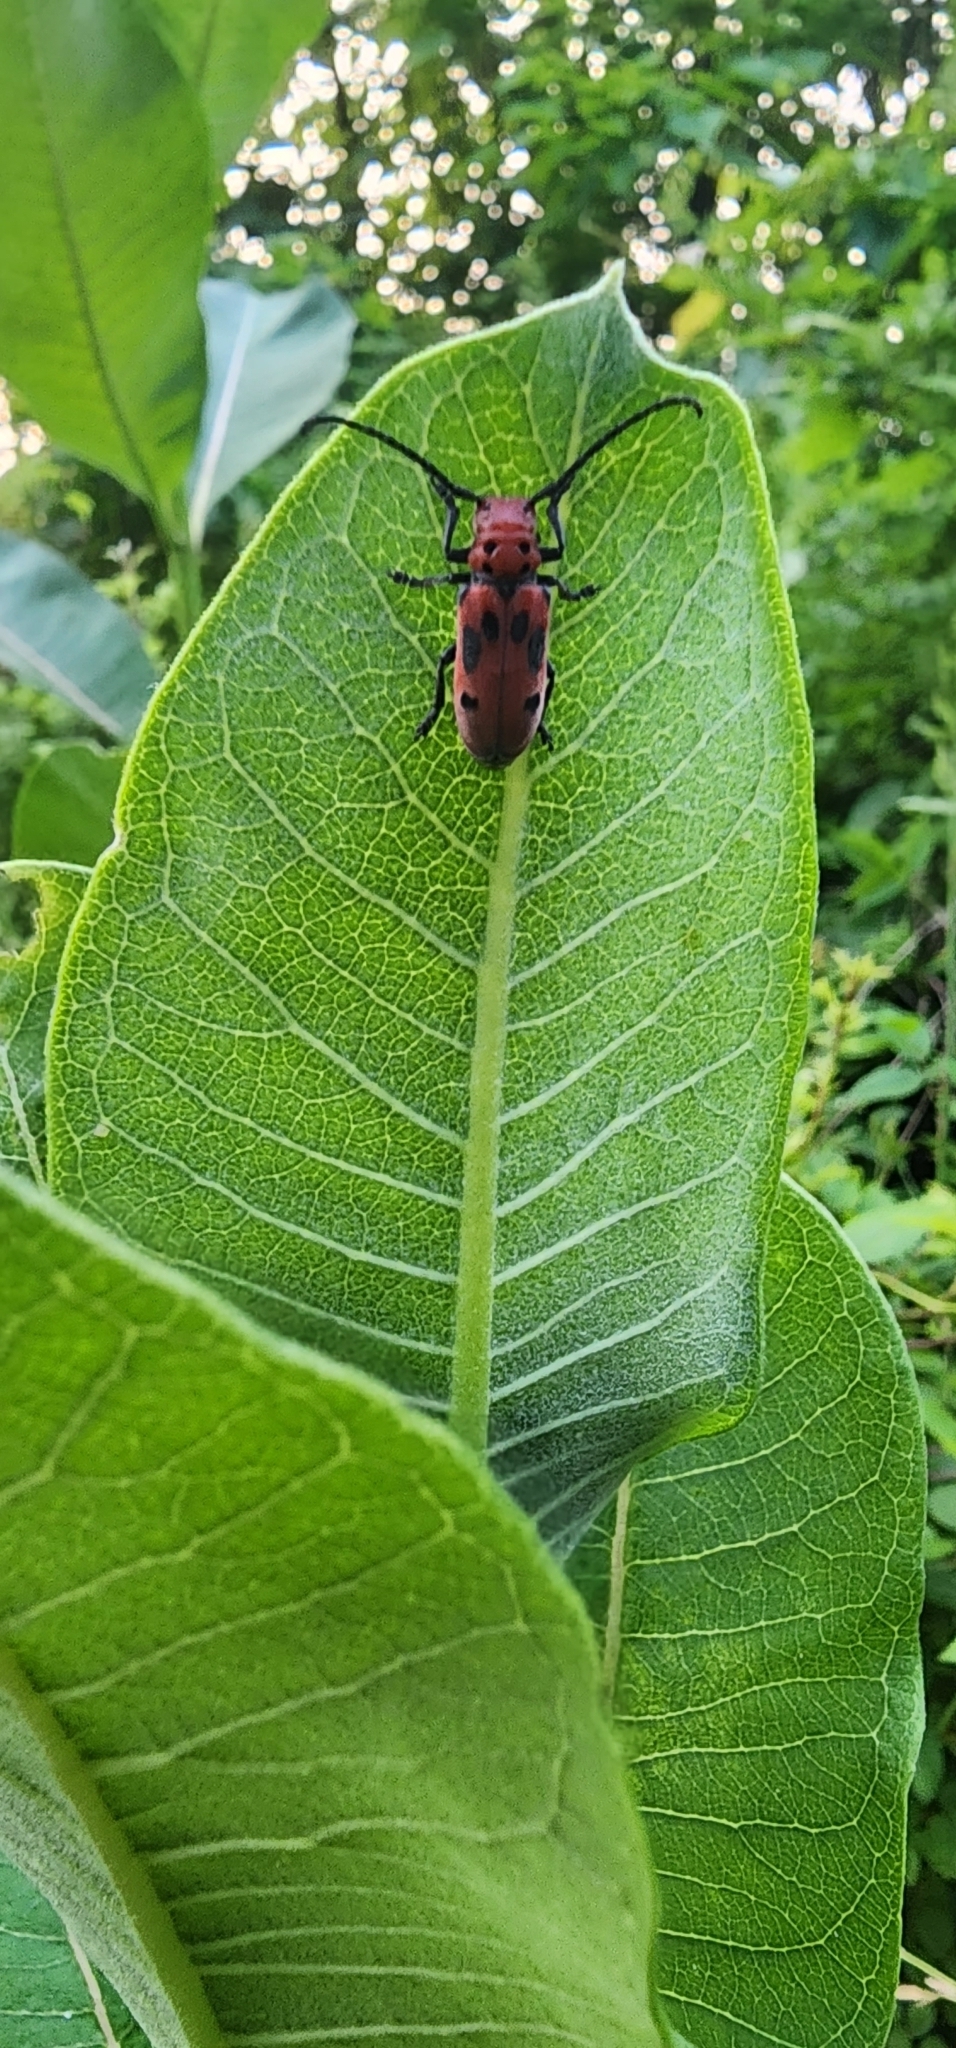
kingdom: Animalia
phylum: Arthropoda
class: Insecta
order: Coleoptera
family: Cerambycidae
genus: Tetraopes
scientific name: Tetraopes tetrophthalmus
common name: Red milkweed beetle
